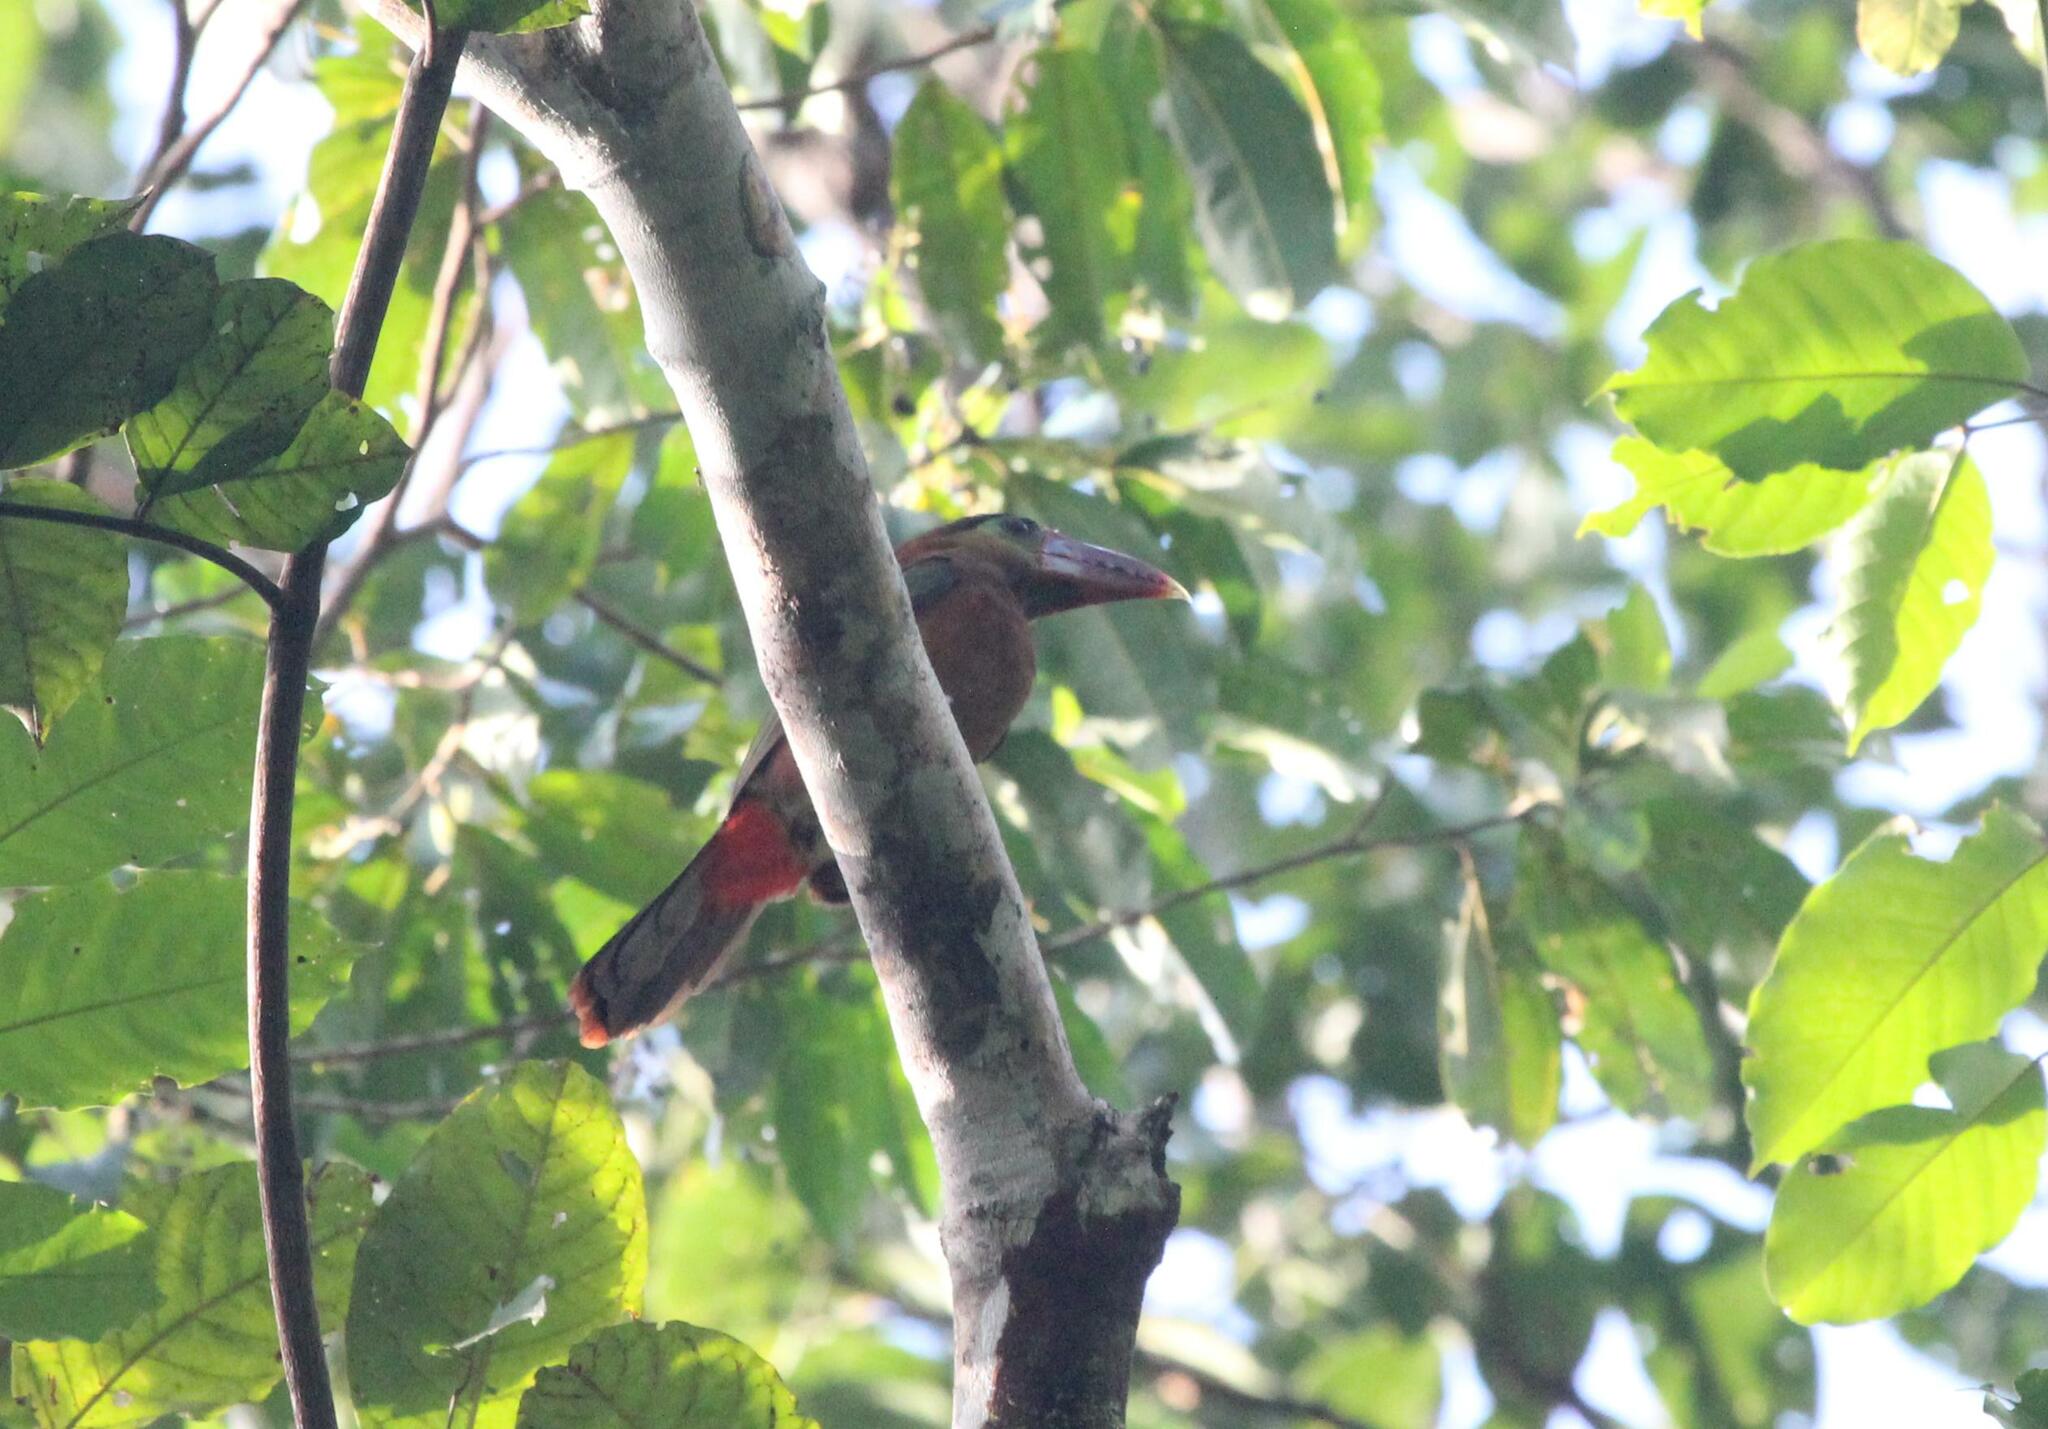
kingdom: Animalia
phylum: Chordata
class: Aves
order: Piciformes
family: Ramphastidae
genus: Selenidera
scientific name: Selenidera nattereri
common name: Tawny-tufted toucanet
